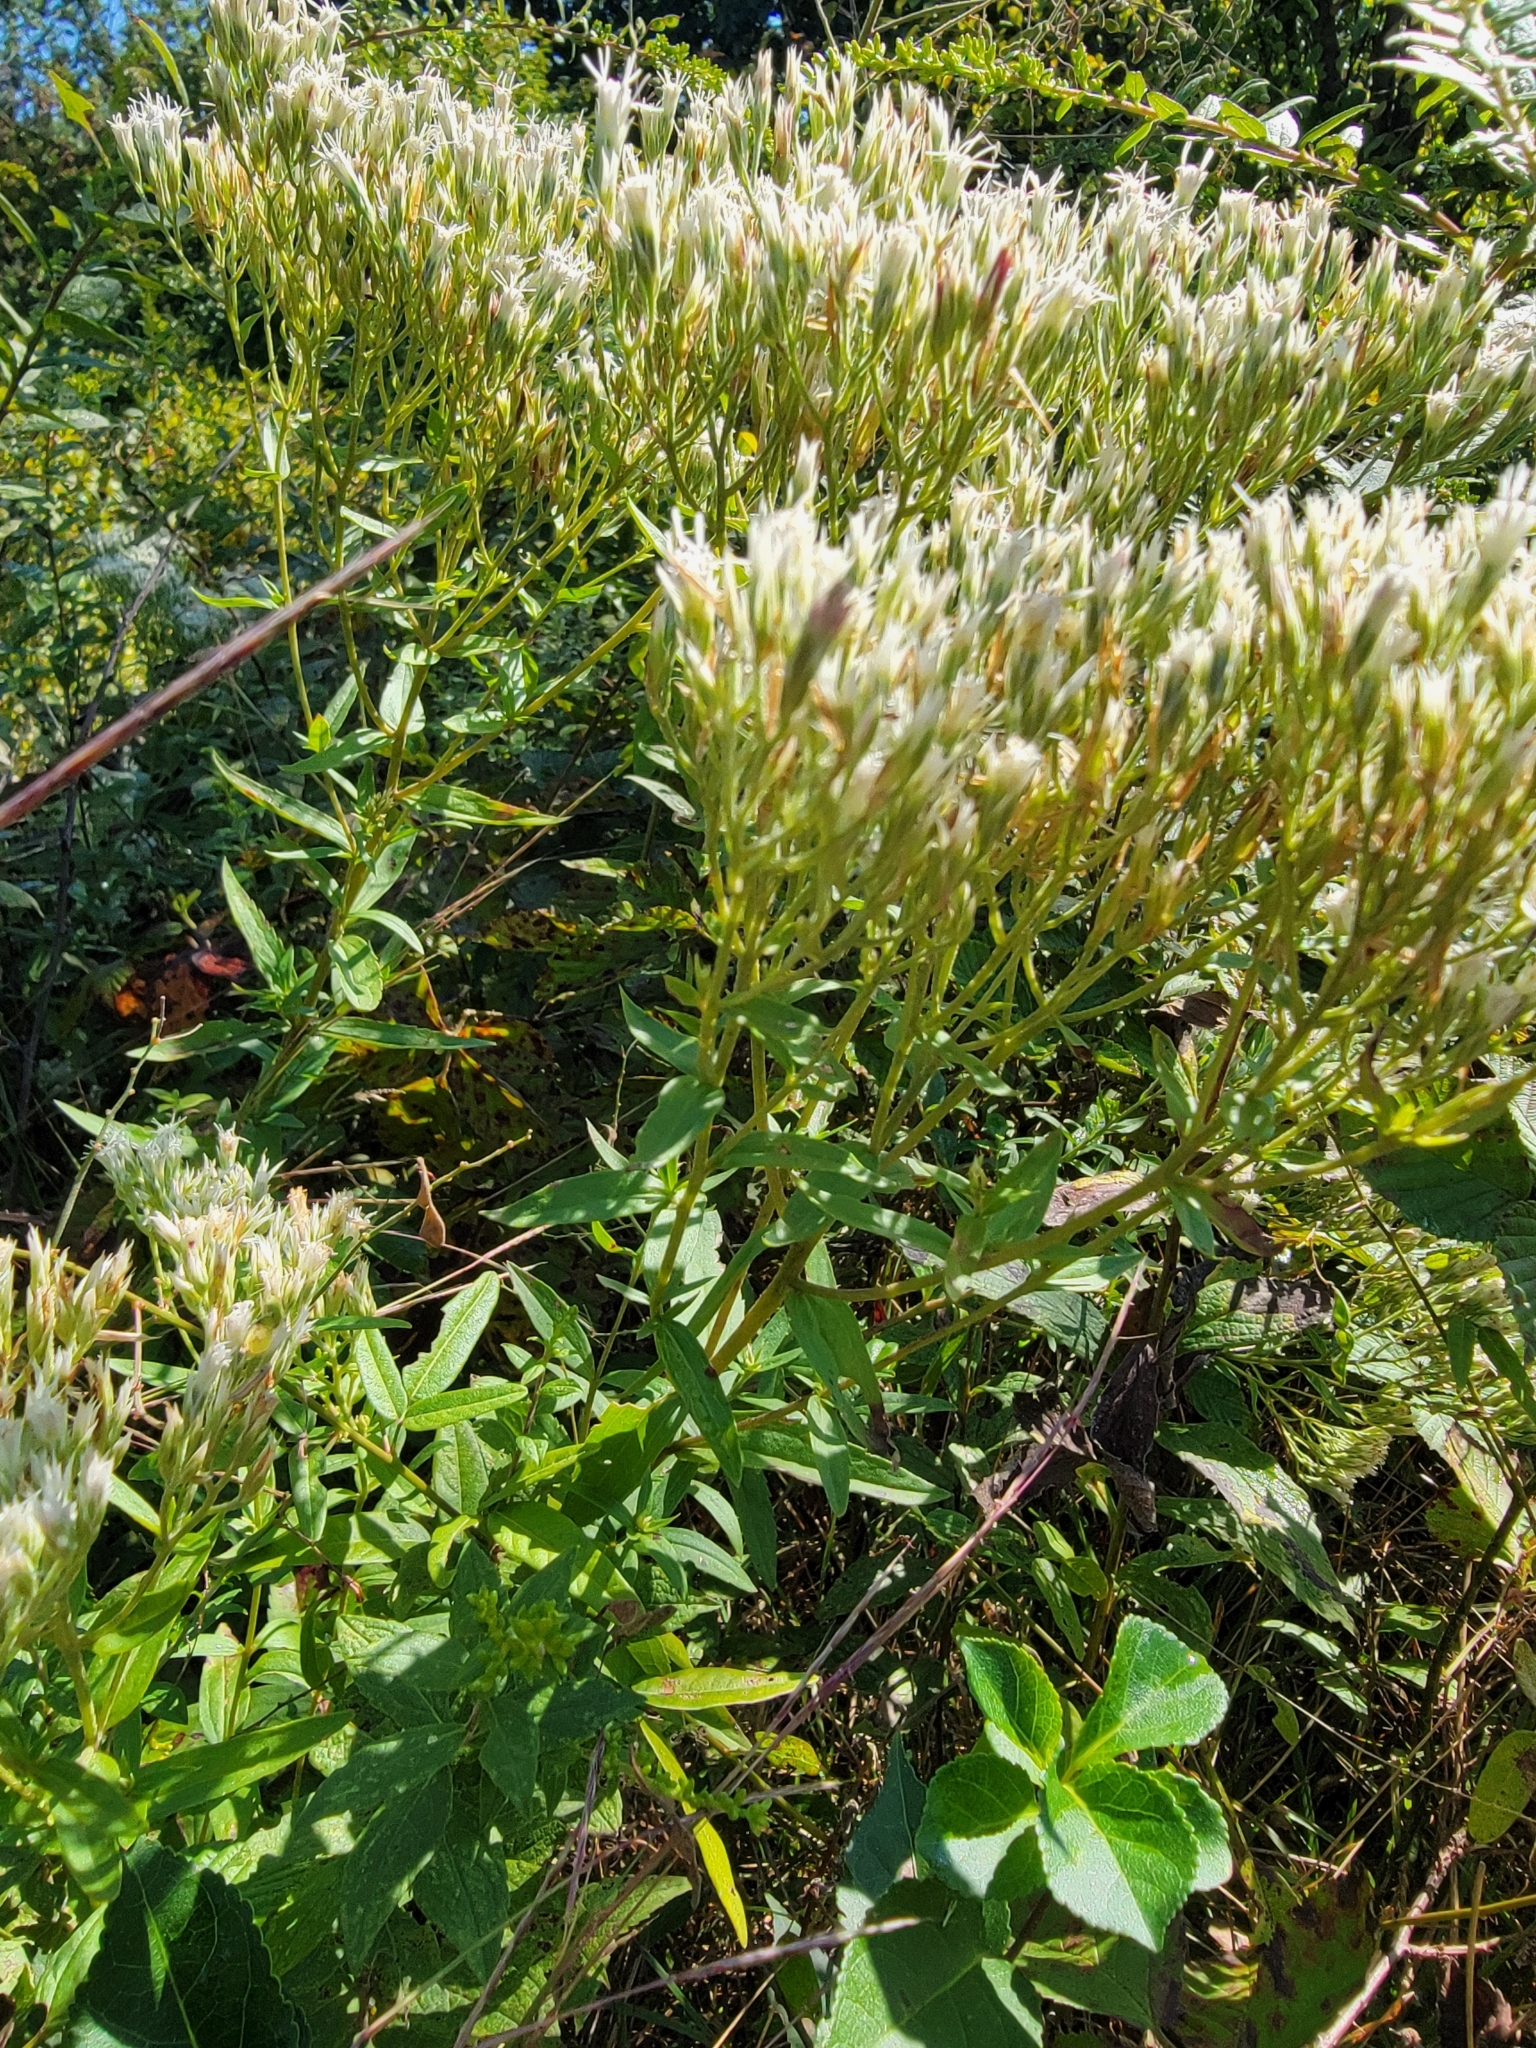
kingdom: Plantae
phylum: Tracheophyta
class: Magnoliopsida
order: Asterales
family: Asteraceae
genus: Eupatorium
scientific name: Eupatorium album
